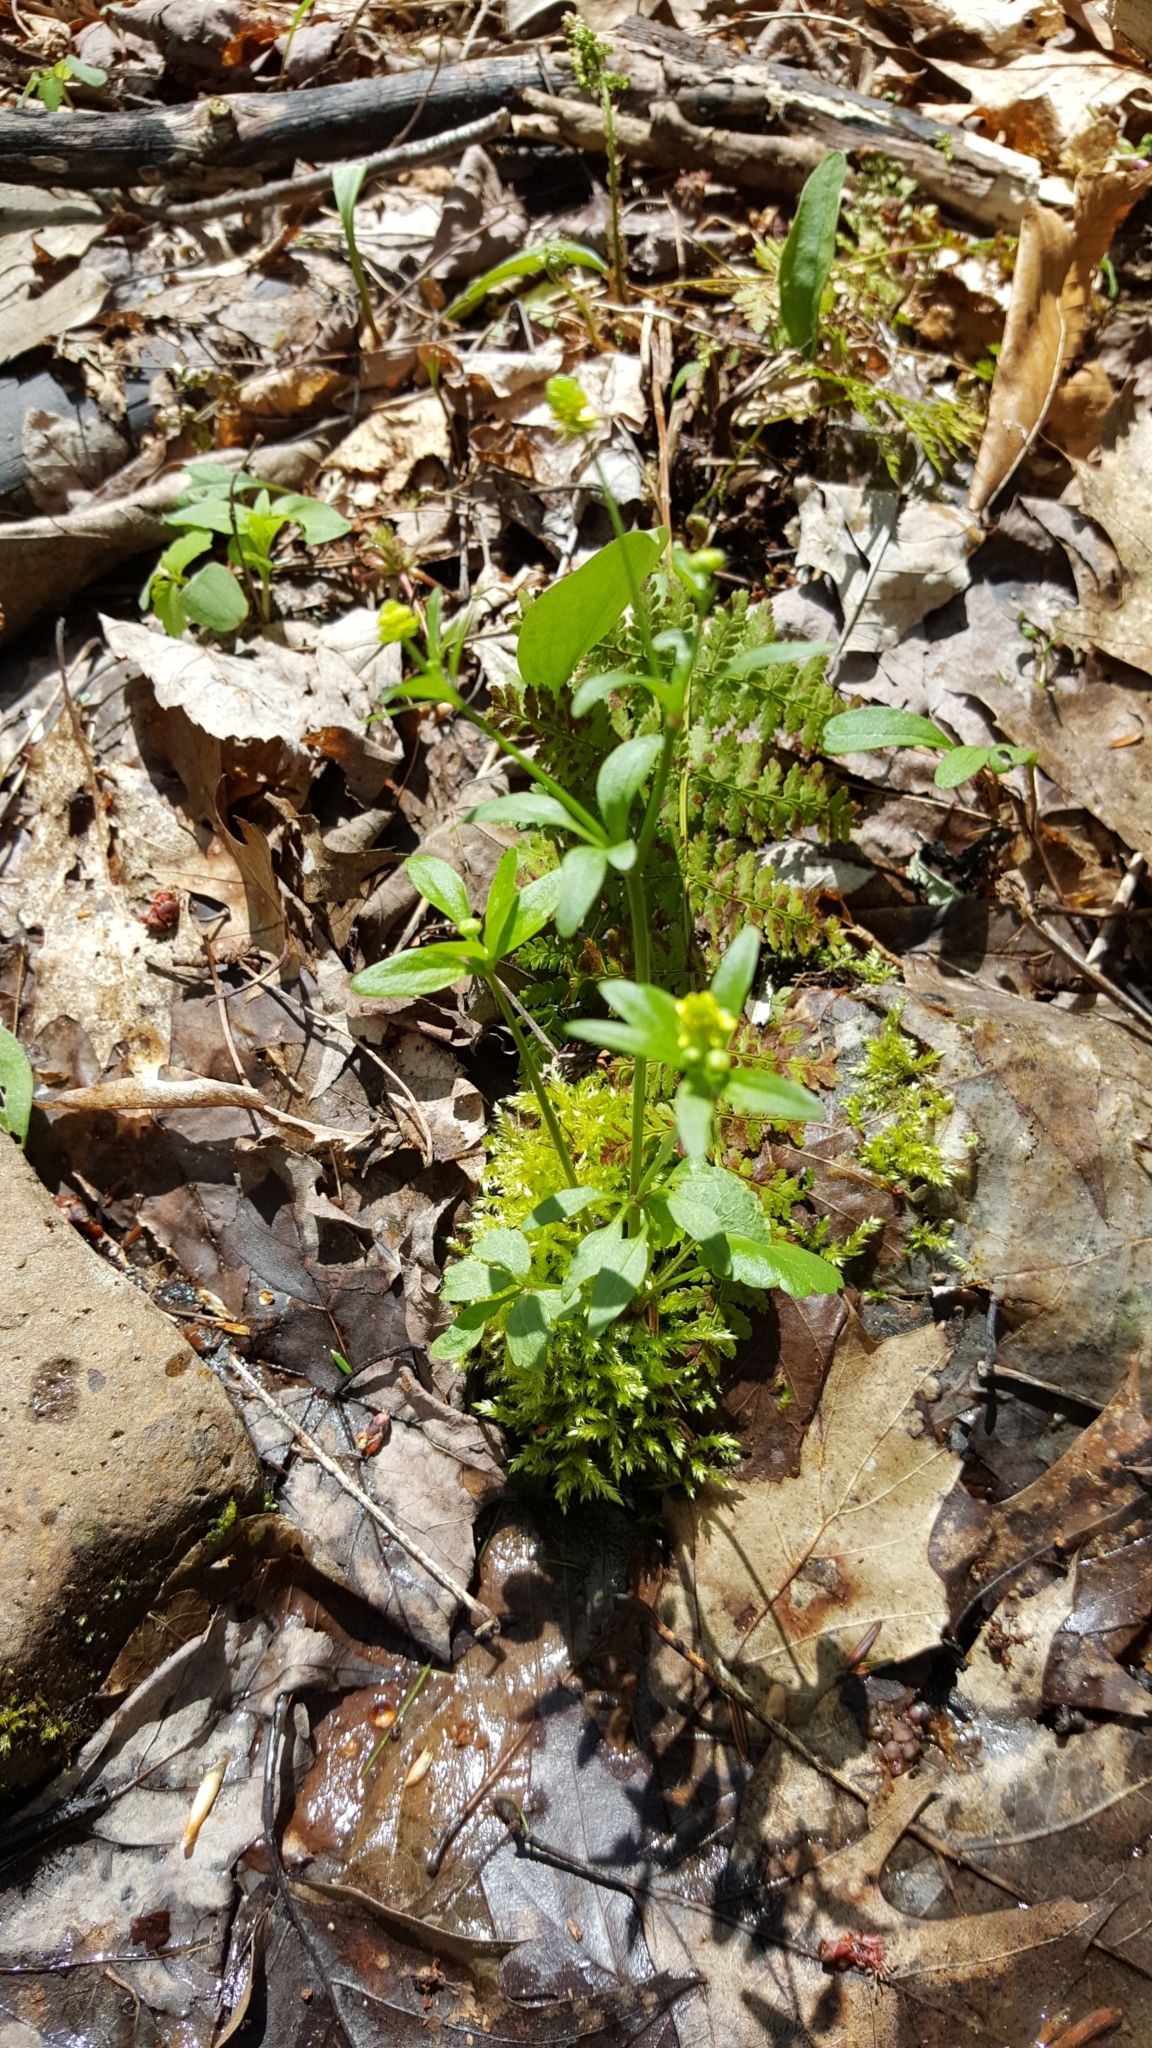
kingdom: Plantae
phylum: Tracheophyta
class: Magnoliopsida
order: Ranunculales
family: Ranunculaceae
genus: Ranunculus
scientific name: Ranunculus abortivus
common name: Early wood buttercup
